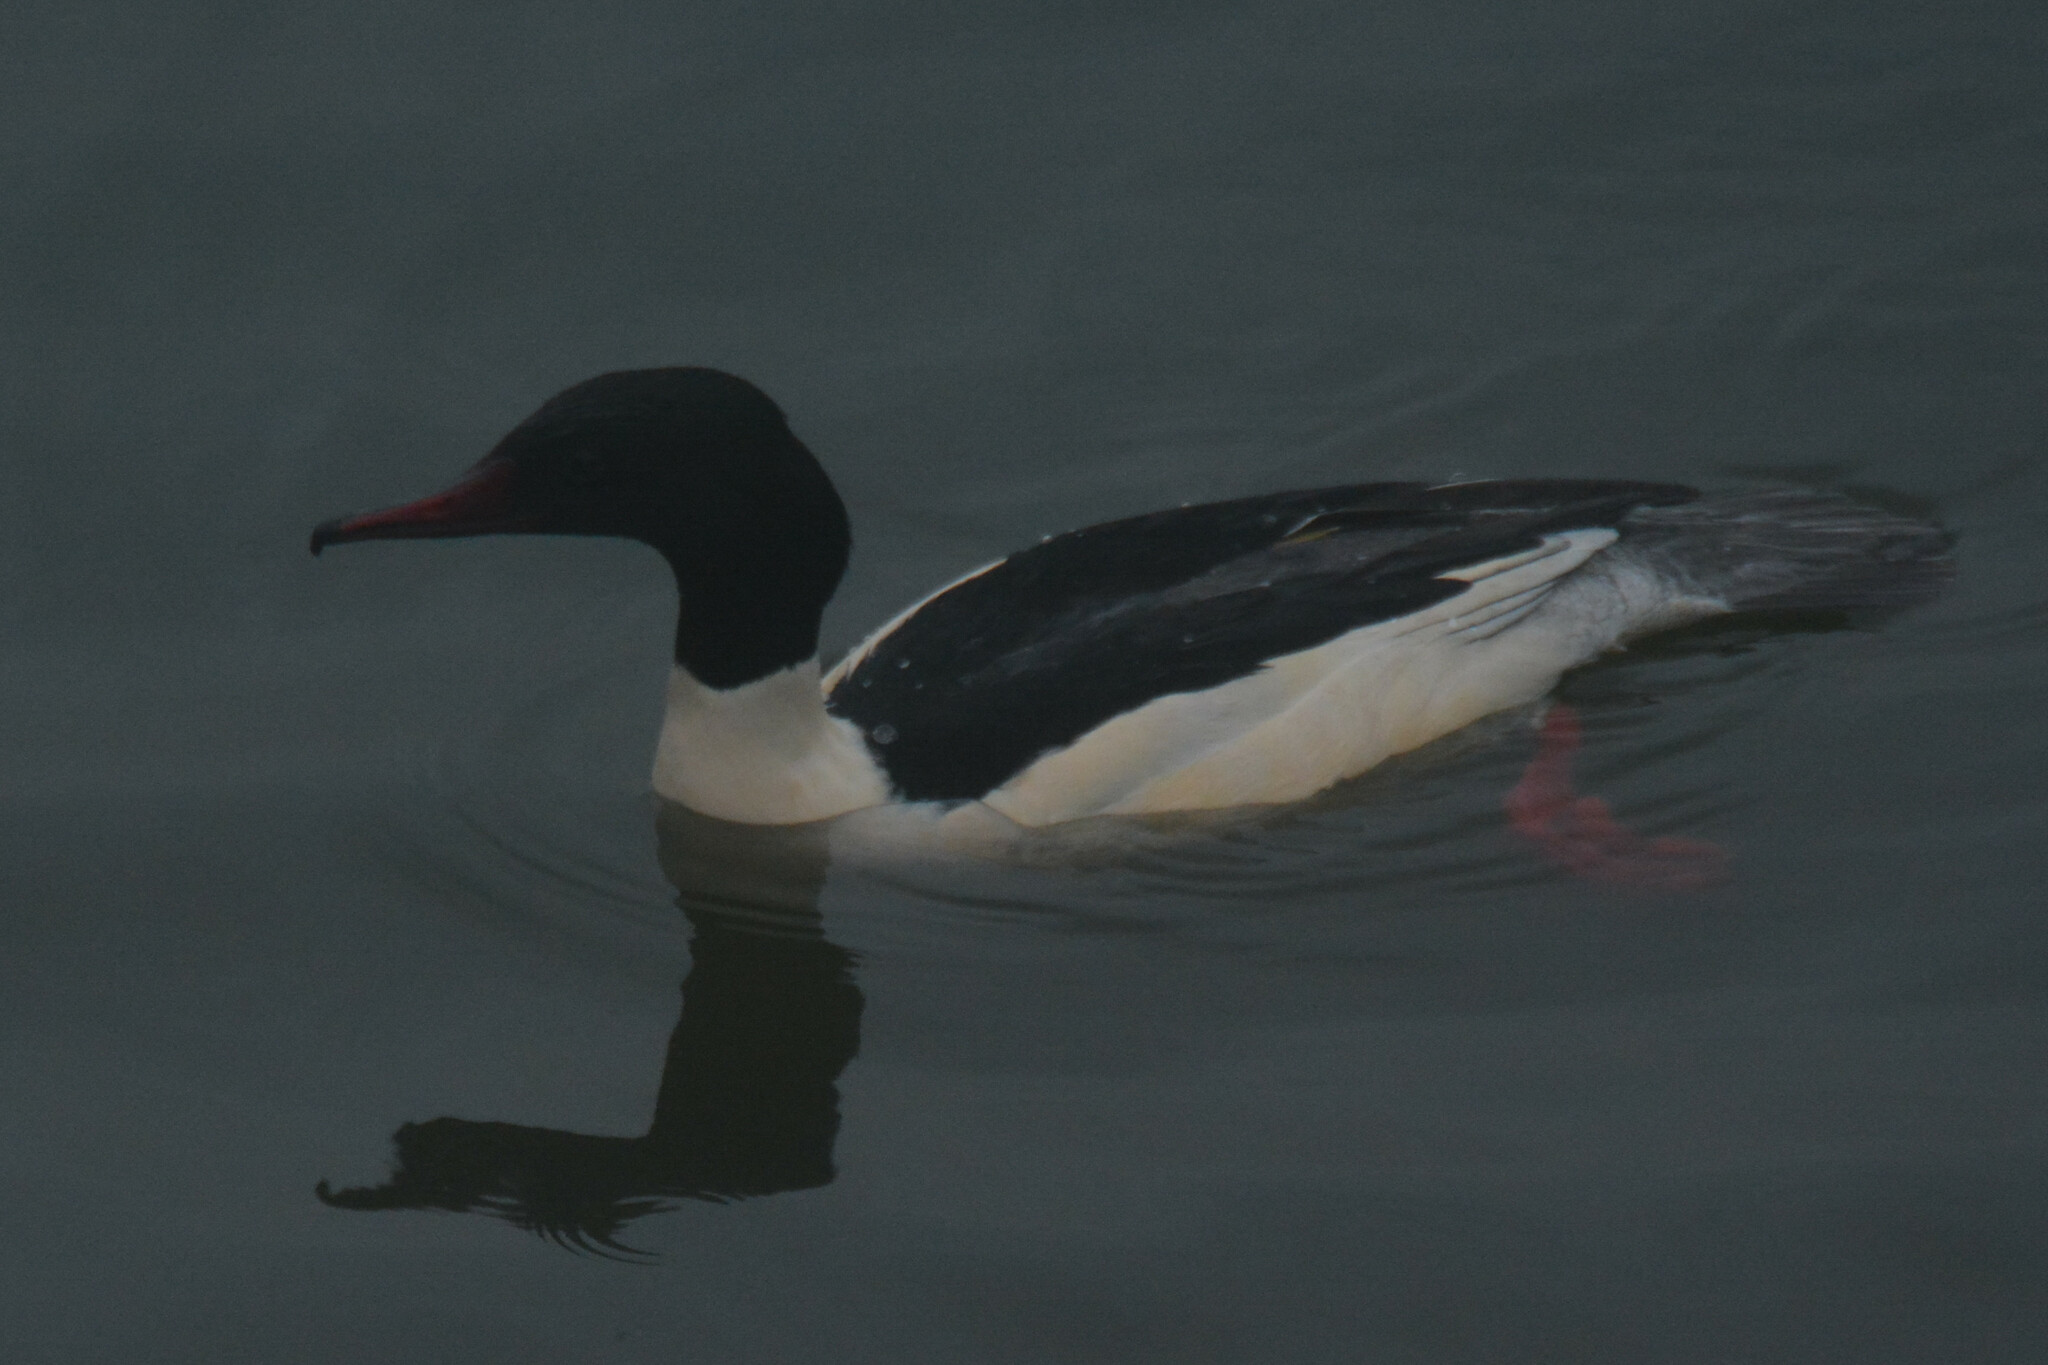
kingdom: Animalia
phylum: Chordata
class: Aves
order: Anseriformes
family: Anatidae
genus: Mergus
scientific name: Mergus merganser
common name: Common merganser
